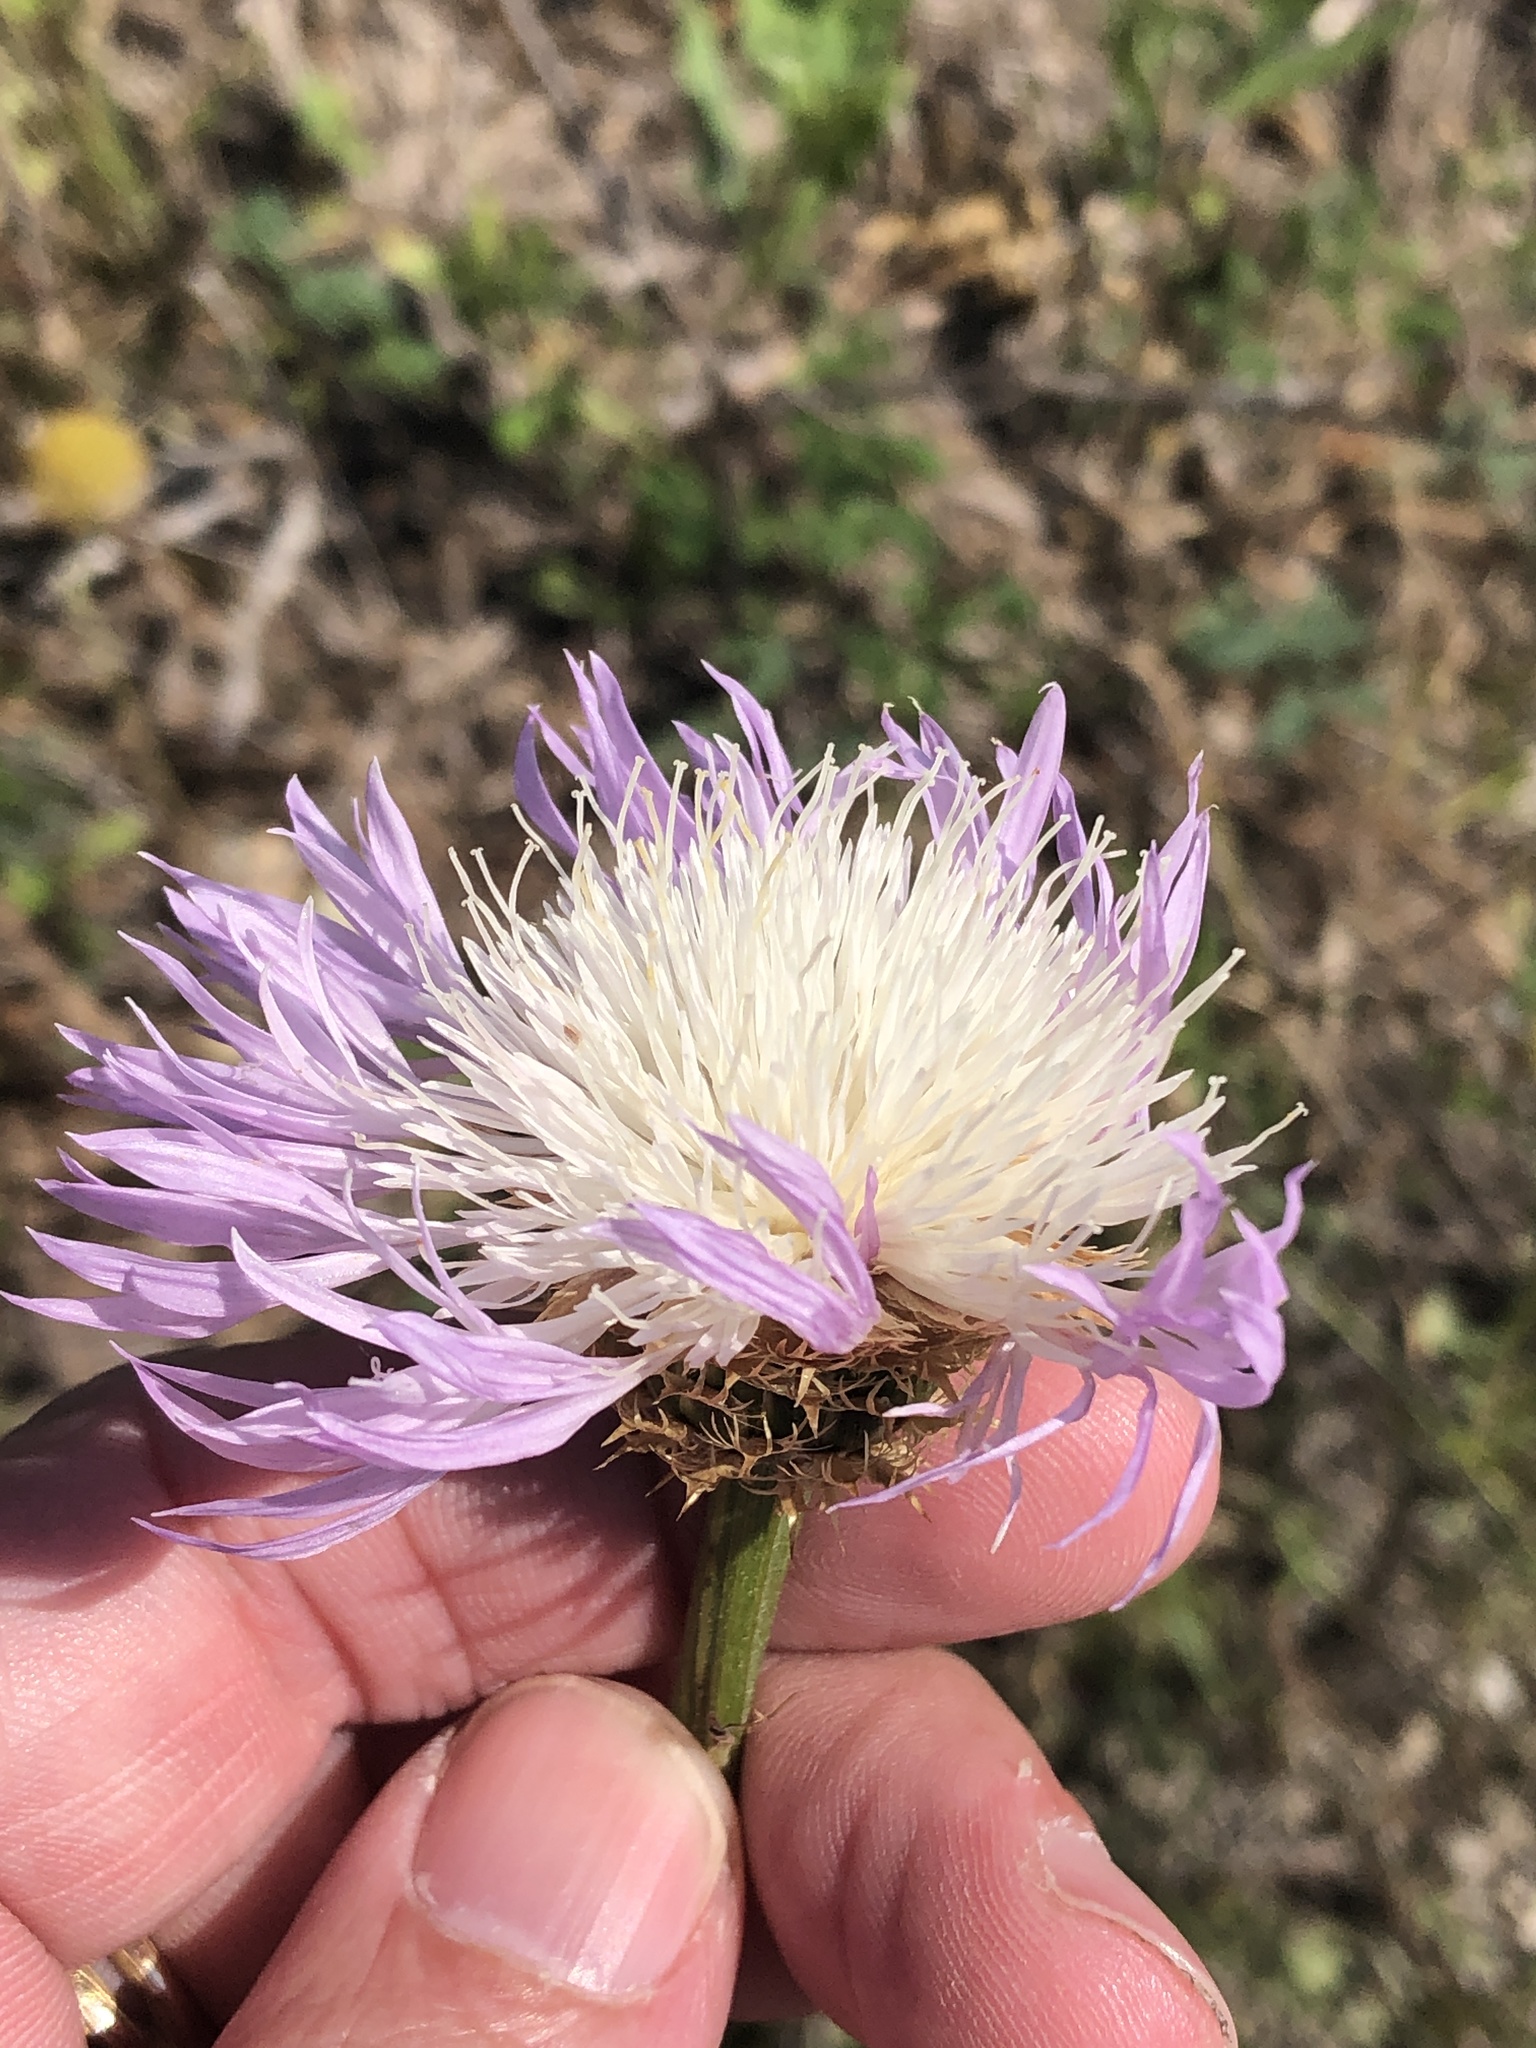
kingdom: Plantae
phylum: Tracheophyta
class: Magnoliopsida
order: Asterales
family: Asteraceae
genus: Plectocephalus
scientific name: Plectocephalus americanus
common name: American basket-flower
